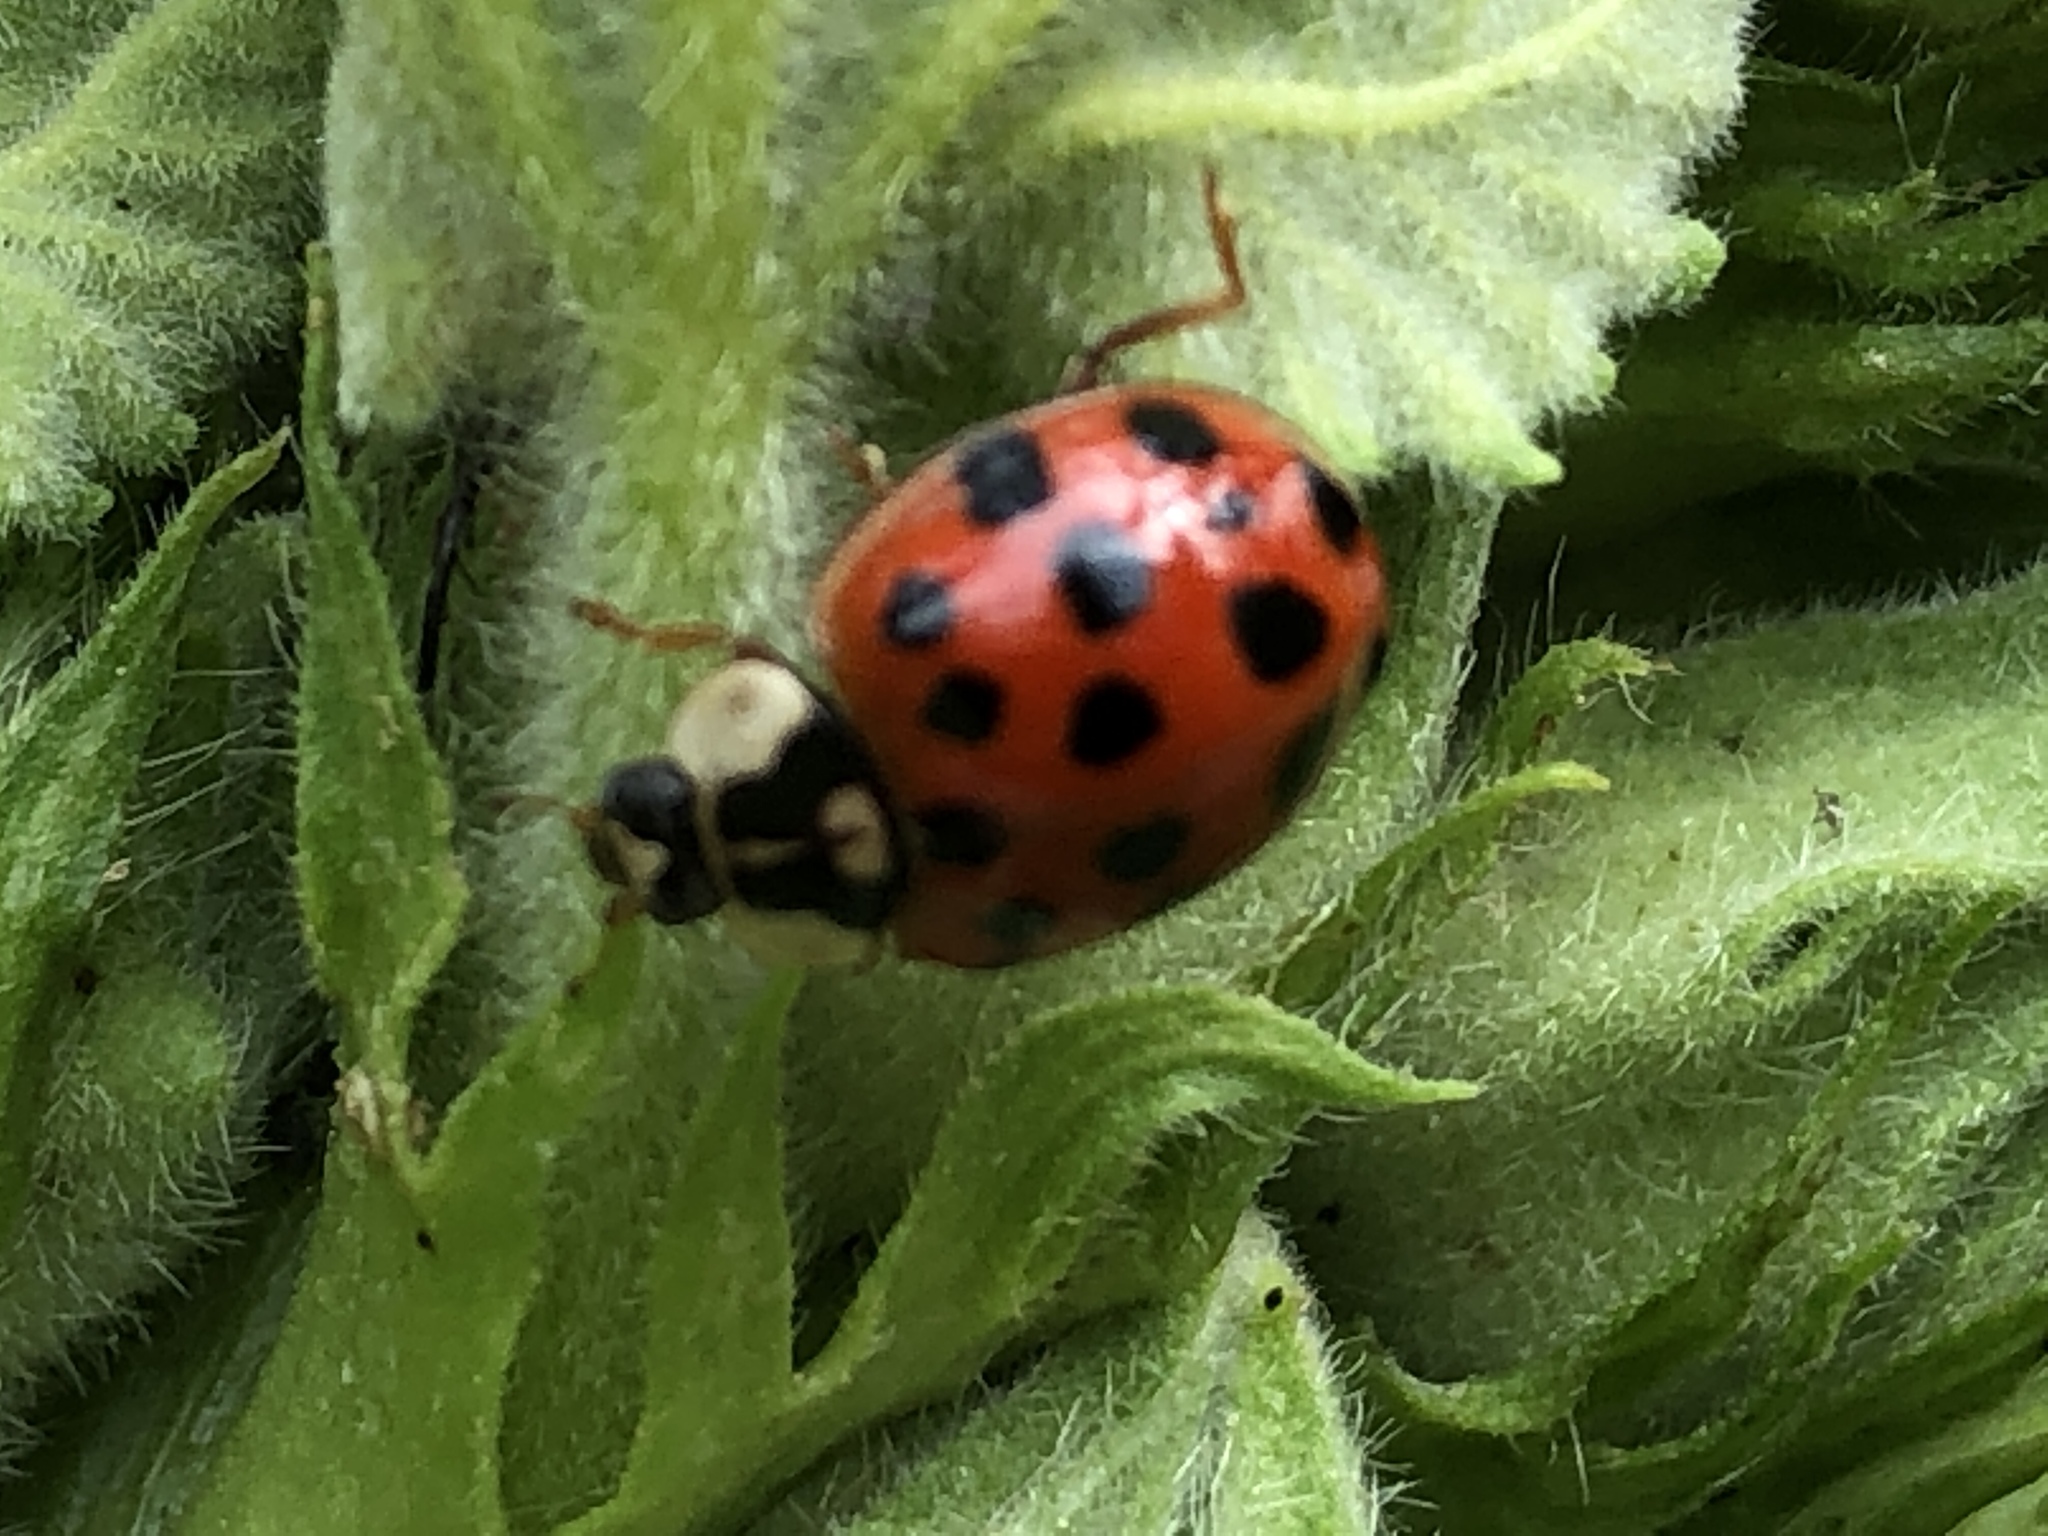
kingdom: Animalia
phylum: Arthropoda
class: Insecta
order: Coleoptera
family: Coccinellidae
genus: Harmonia
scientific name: Harmonia axyridis
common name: Harlequin ladybird
